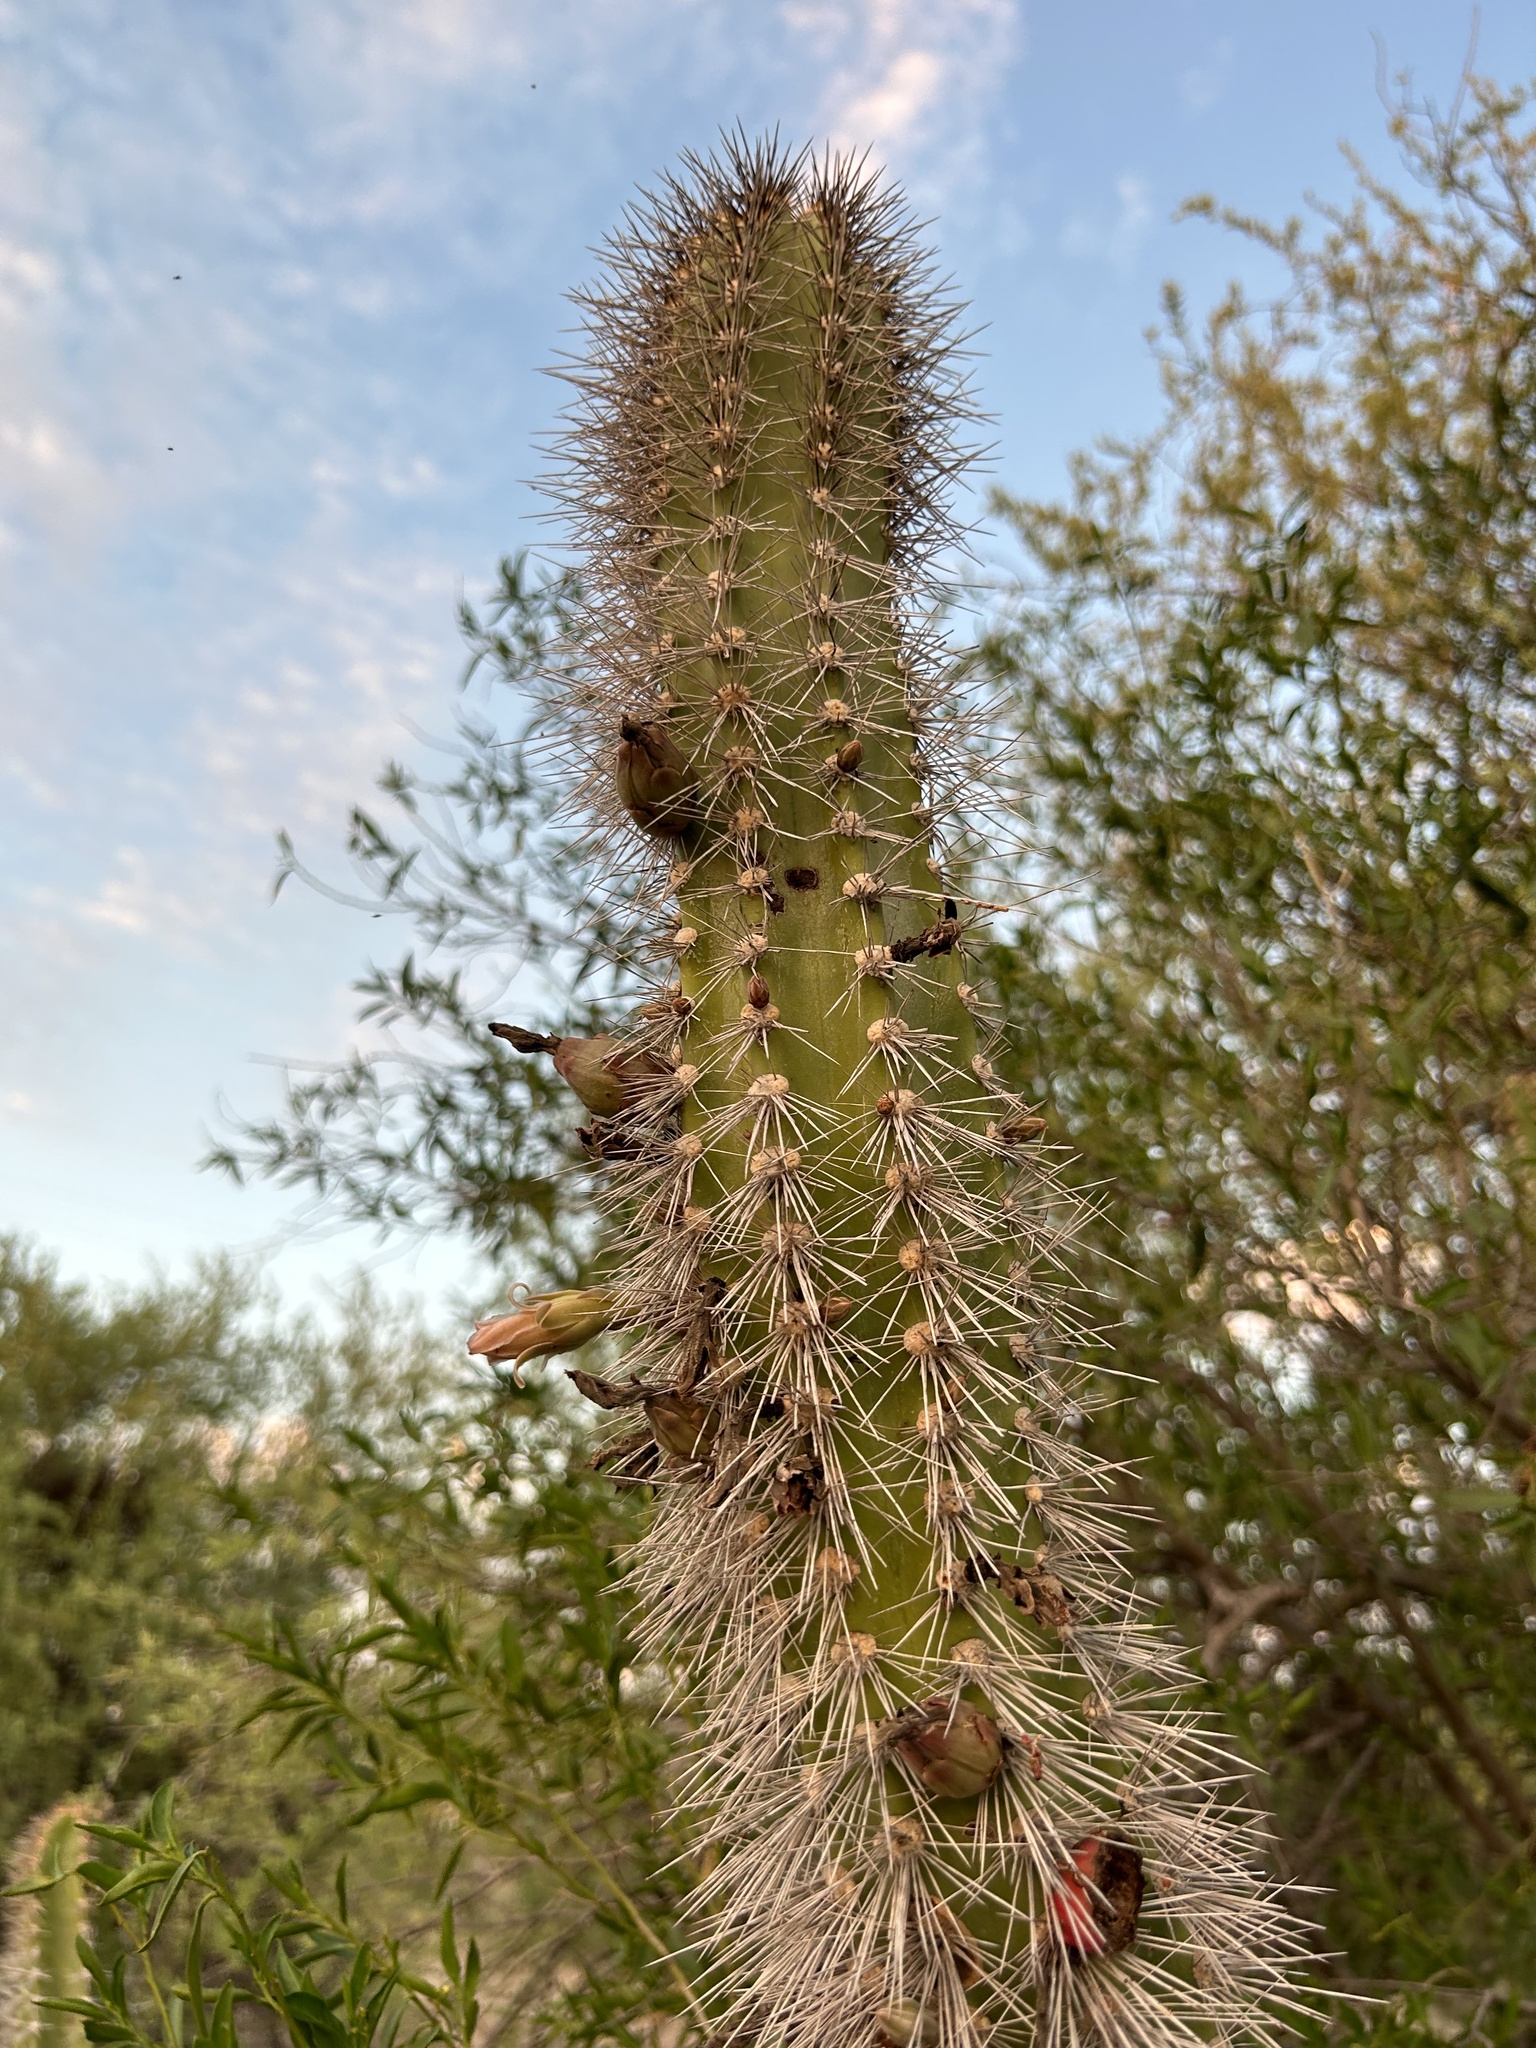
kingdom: Plantae
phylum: Tracheophyta
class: Magnoliopsida
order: Caryophyllales
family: Cactaceae
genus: Pachycereus
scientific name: Pachycereus schottii
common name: Senita cactus
